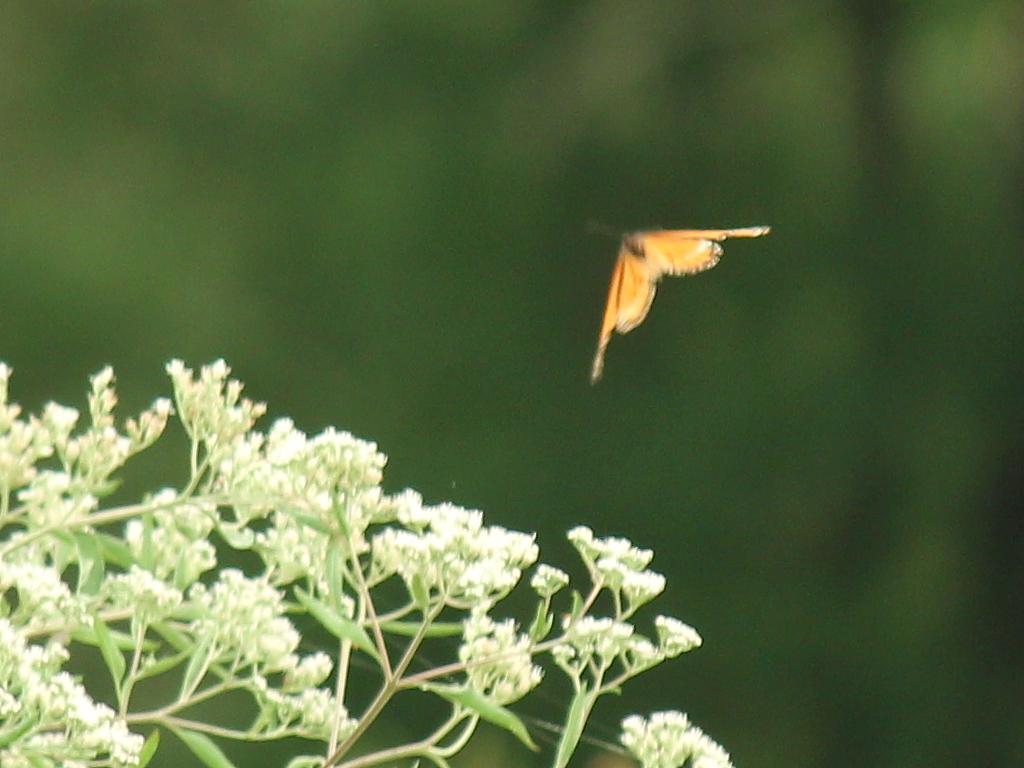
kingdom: Animalia
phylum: Arthropoda
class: Insecta
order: Lepidoptera
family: Nymphalidae
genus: Danaus
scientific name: Danaus plexippus
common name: Monarch
